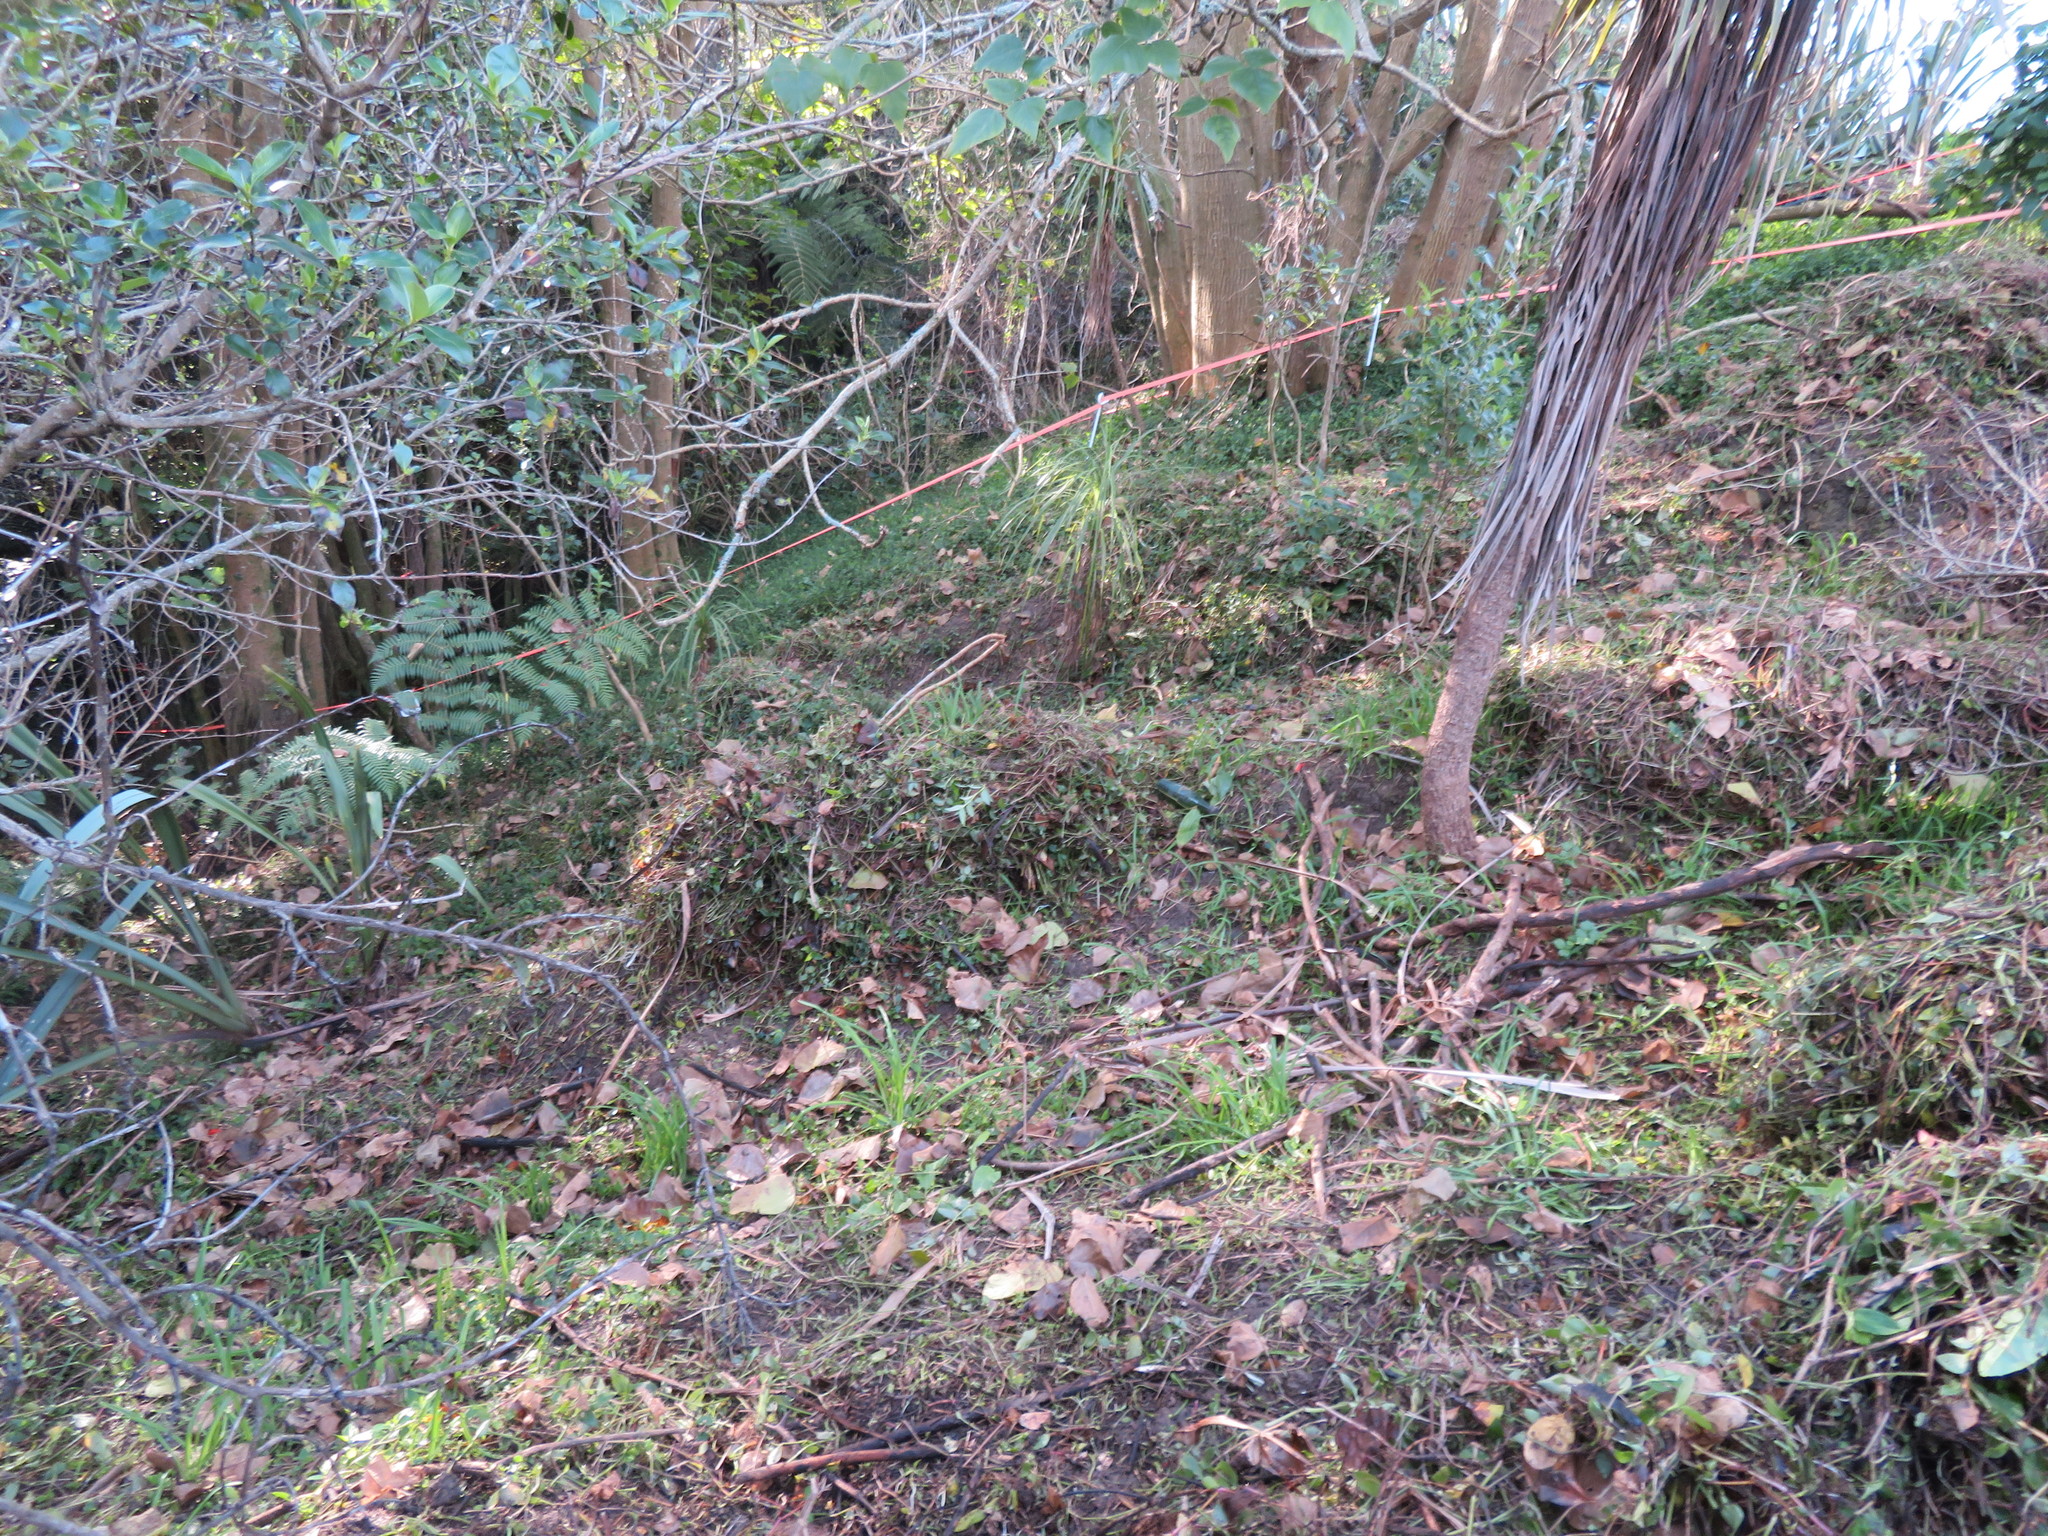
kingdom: Plantae
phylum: Tracheophyta
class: Polypodiopsida
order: Cyatheales
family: Cyatheaceae
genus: Alsophila
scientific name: Alsophila dealbata
